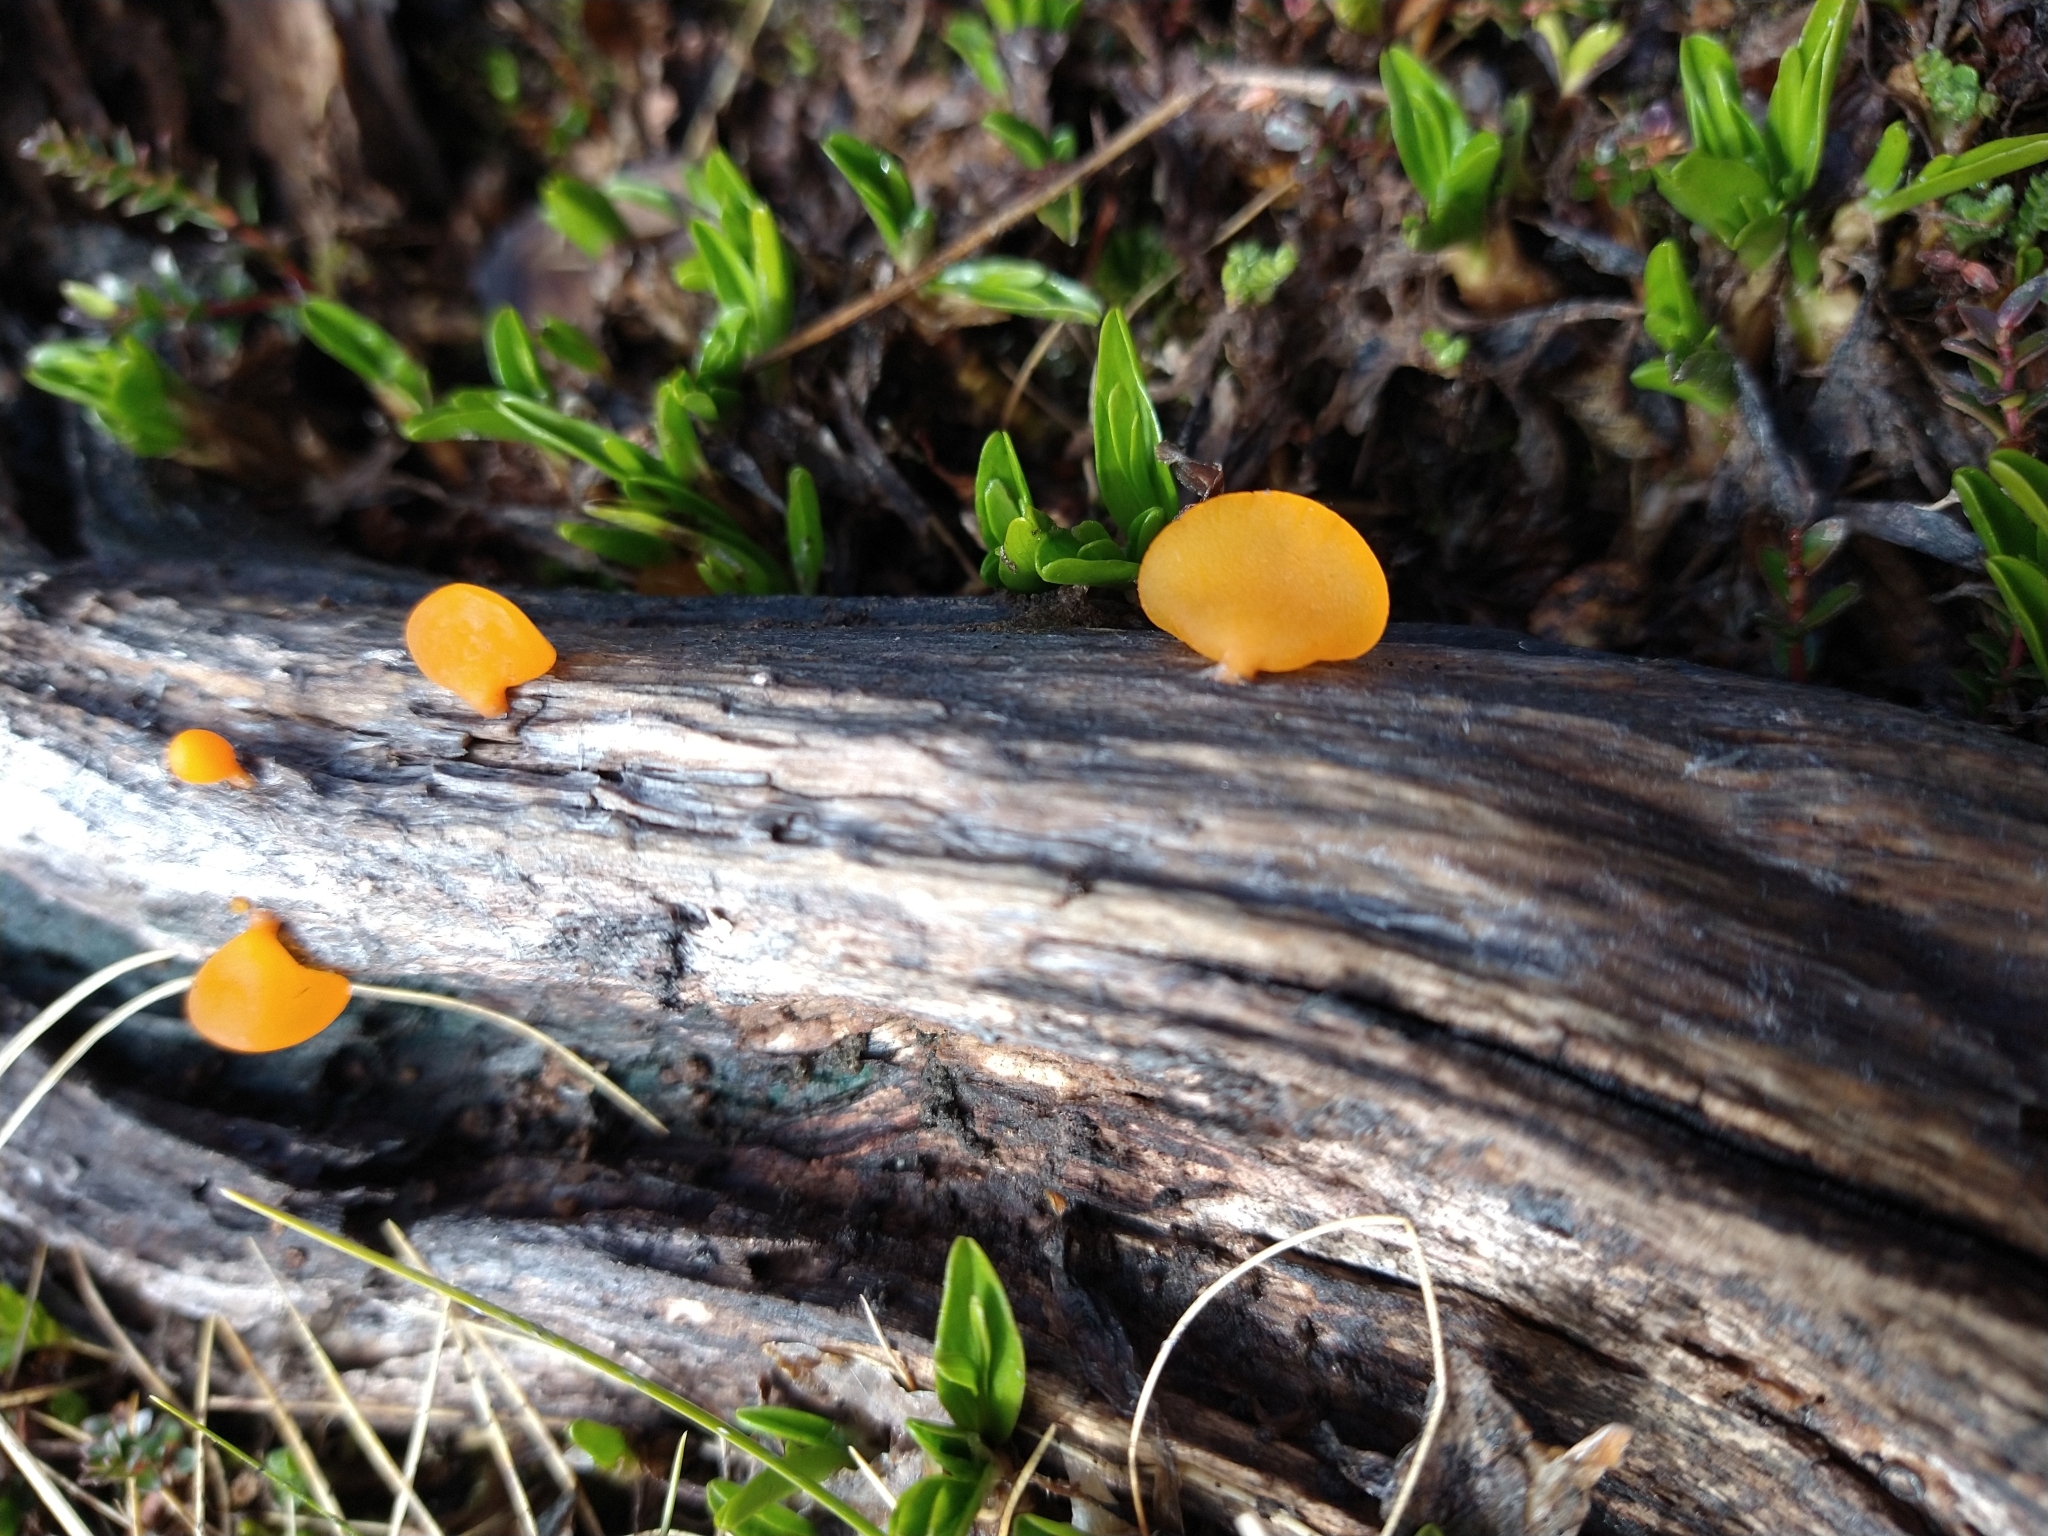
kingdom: Fungi
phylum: Basidiomycota
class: Dacrymycetes
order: Dacrymycetales
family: Dacrymycetaceae
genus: Guepiniopsis
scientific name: Guepiniopsis alpina
